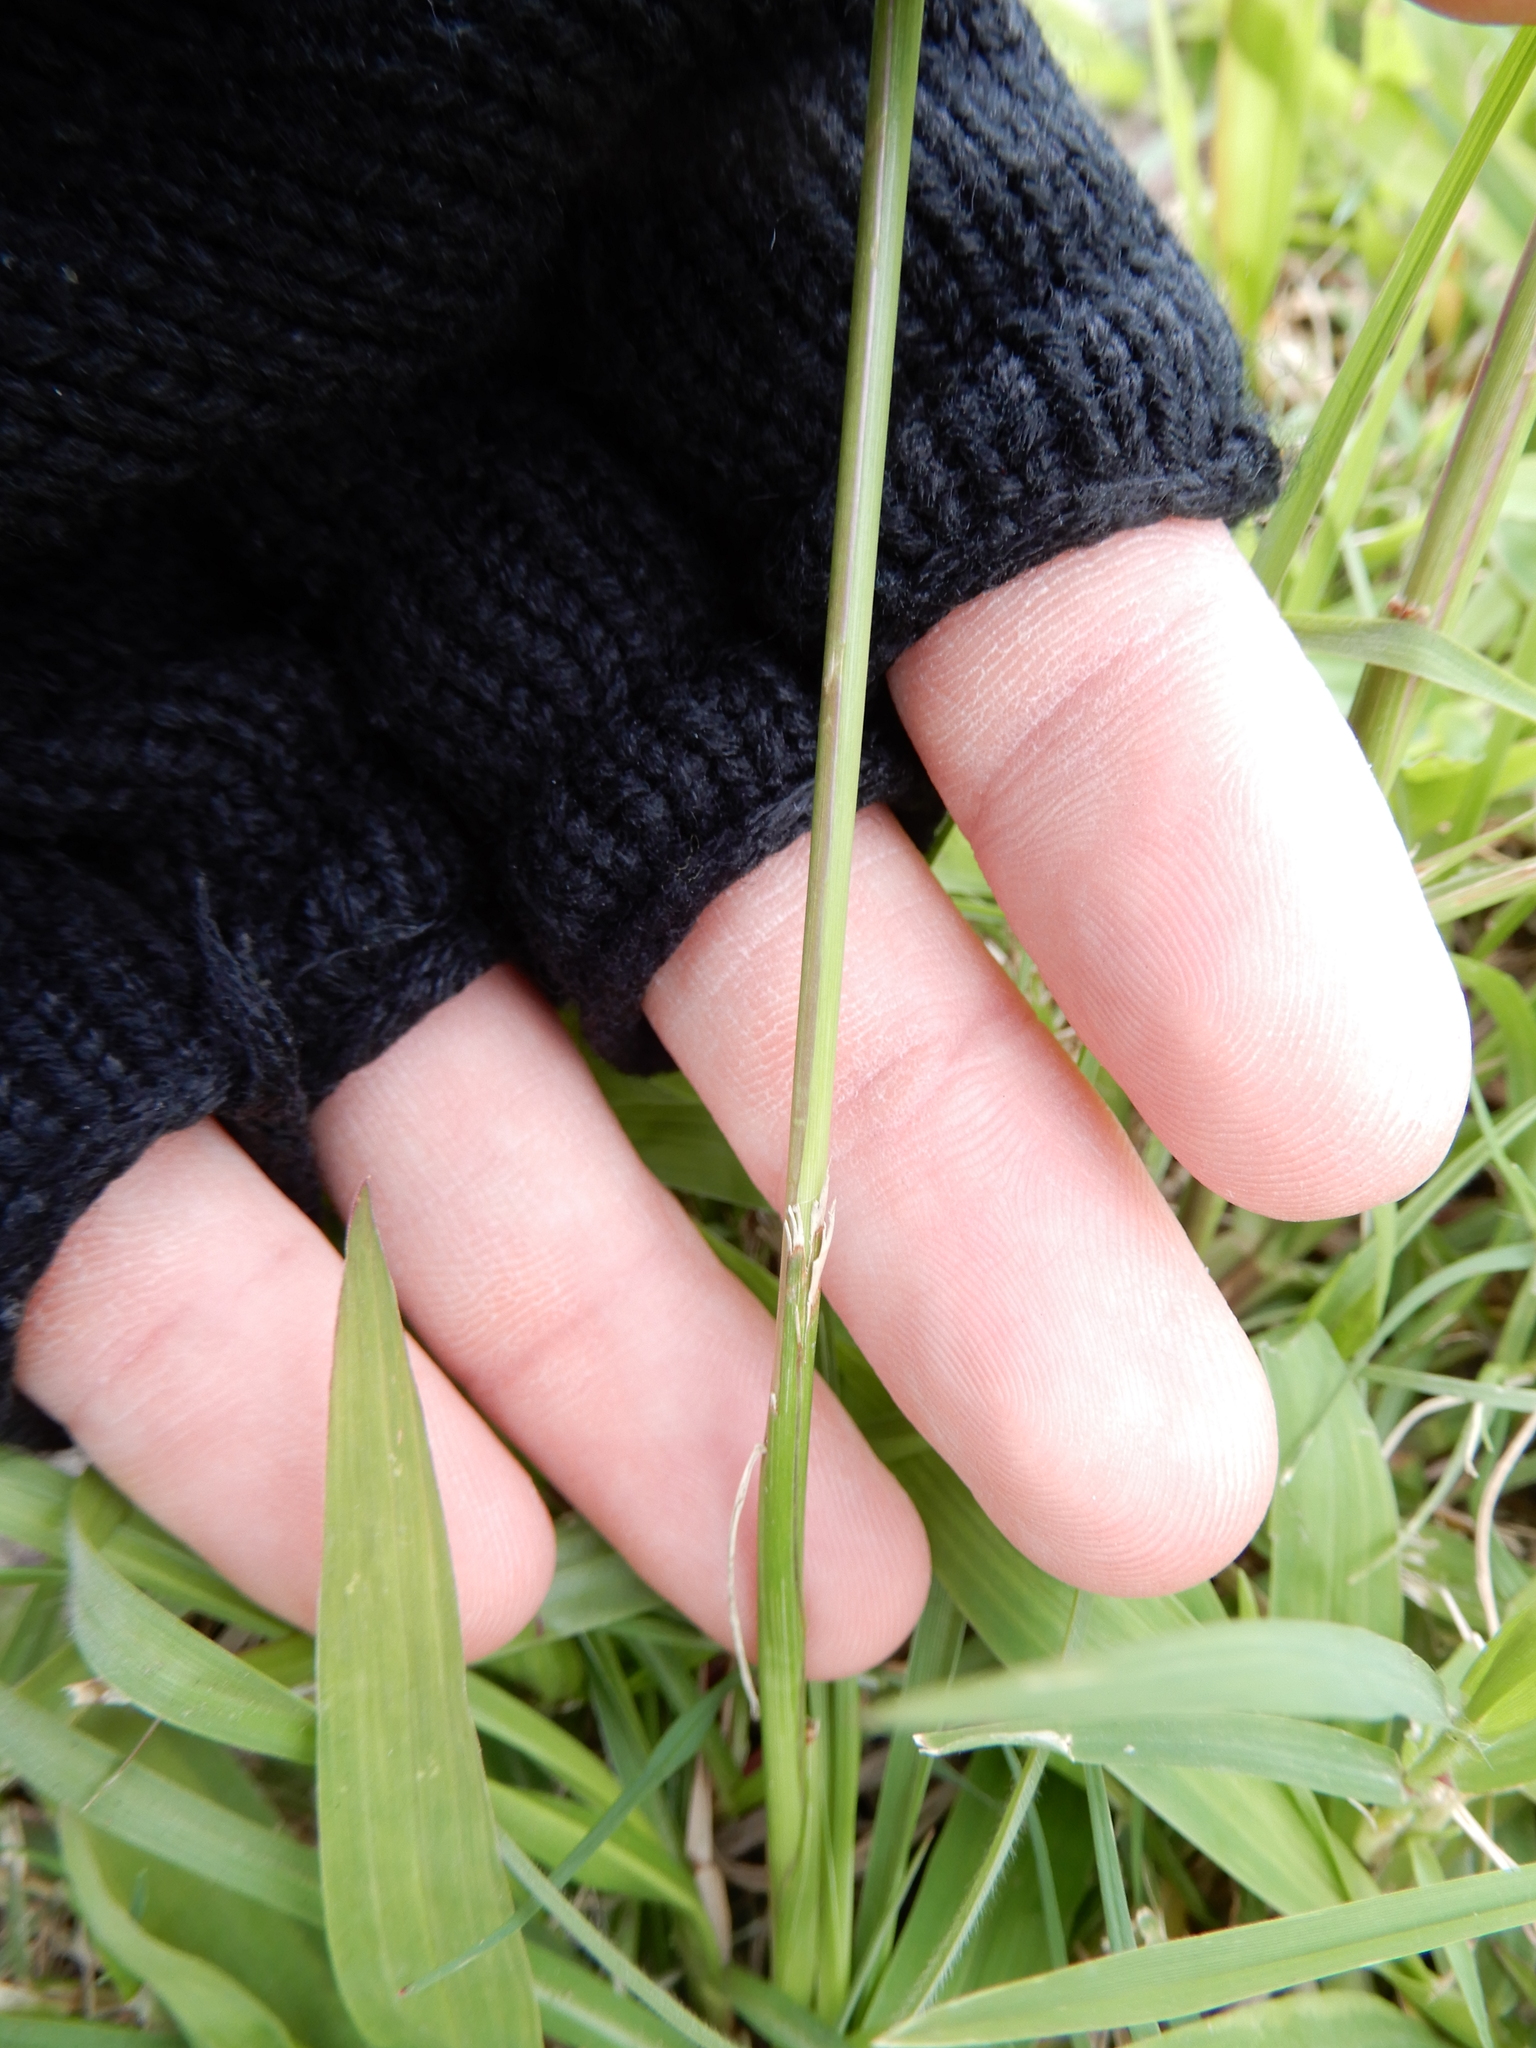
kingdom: Plantae
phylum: Tracheophyta
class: Liliopsida
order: Poales
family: Poaceae
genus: Paspalum
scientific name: Paspalum notatum
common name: Bahiagrass
